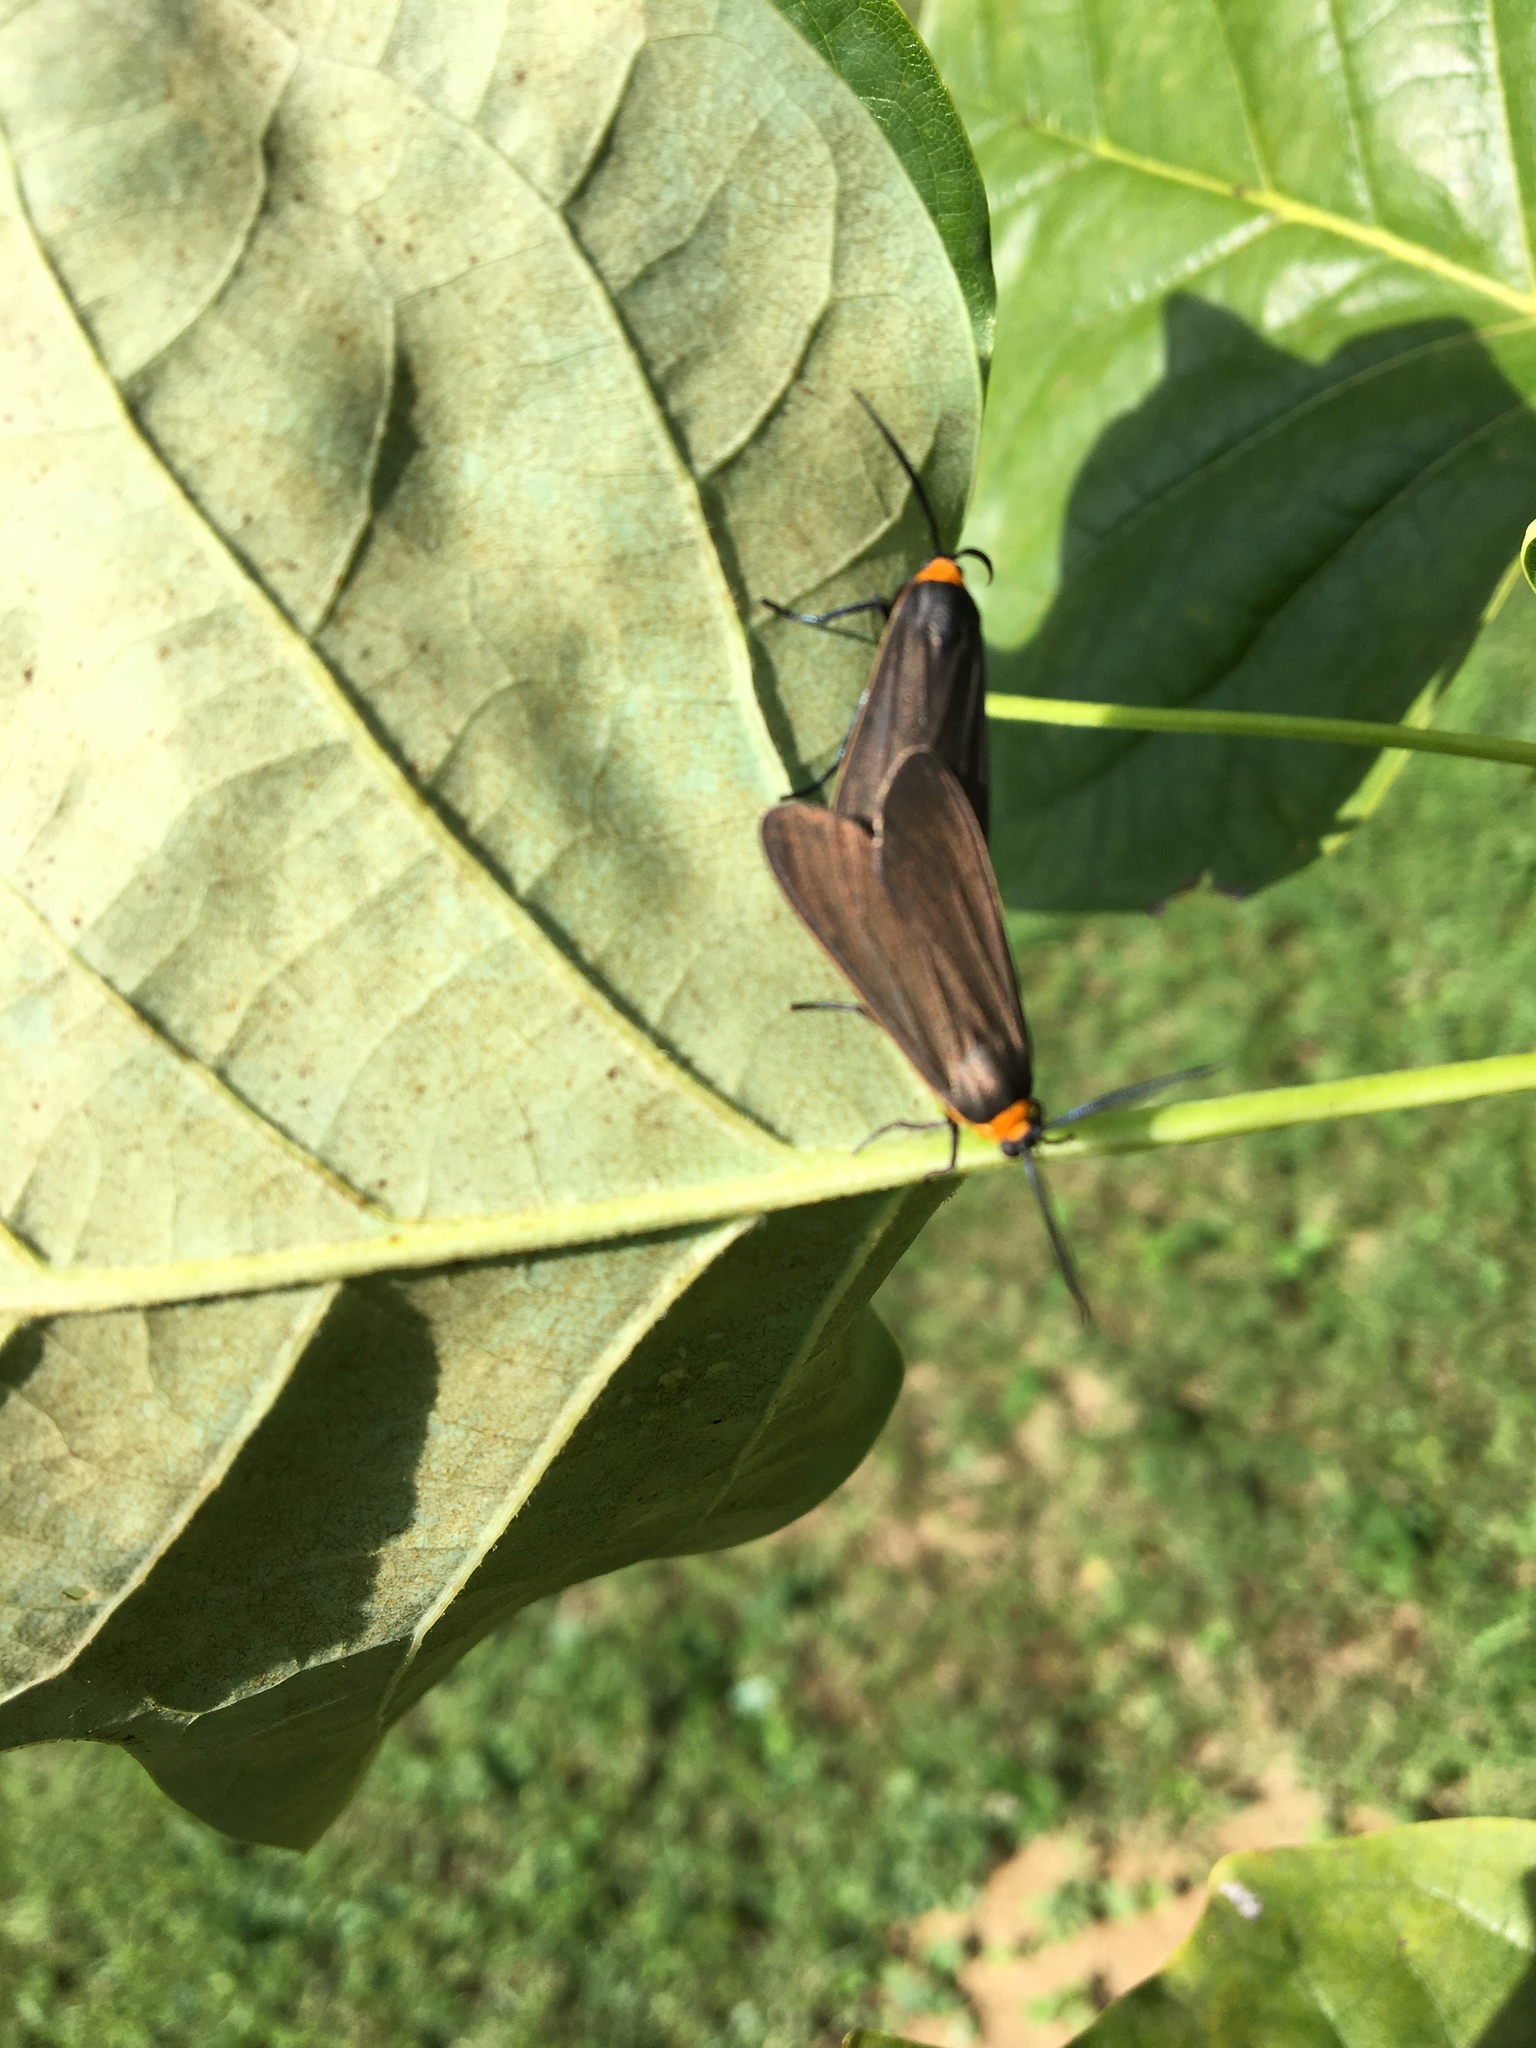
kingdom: Animalia
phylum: Arthropoda
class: Insecta
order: Lepidoptera
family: Erebidae
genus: Cisseps
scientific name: Cisseps fulvicollis
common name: Yellow-collared scape moth
